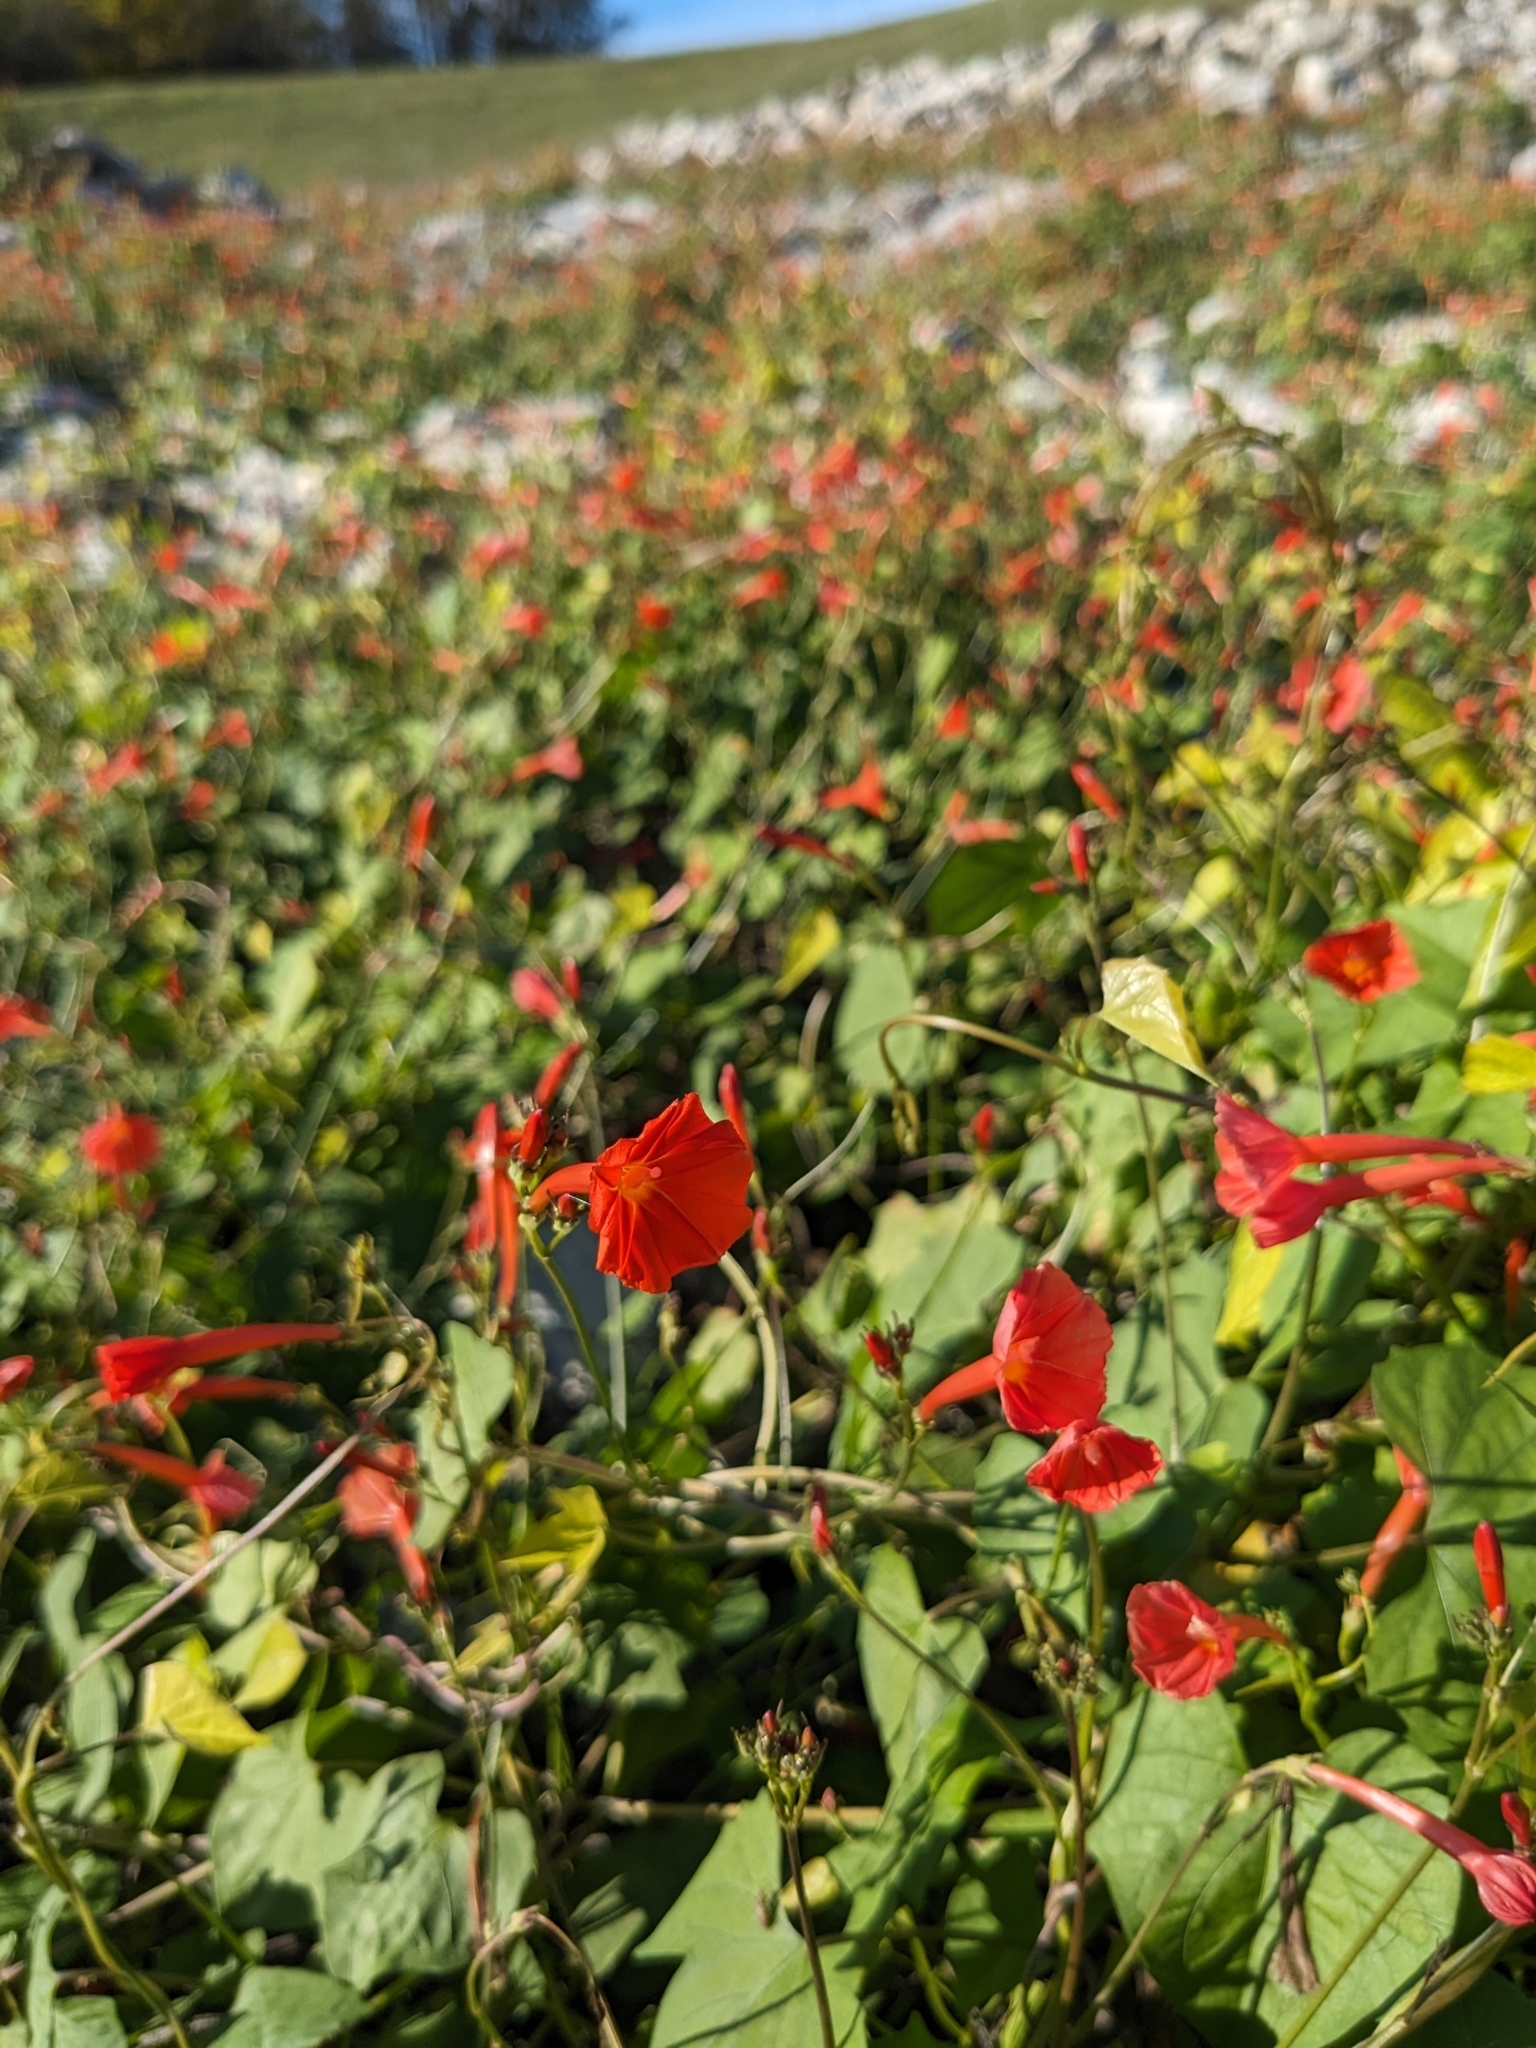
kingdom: Plantae
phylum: Tracheophyta
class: Magnoliopsida
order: Solanales
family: Convolvulaceae
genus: Ipomoea
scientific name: Ipomoea hederifolia
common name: Ivy-leaf morning-glory
